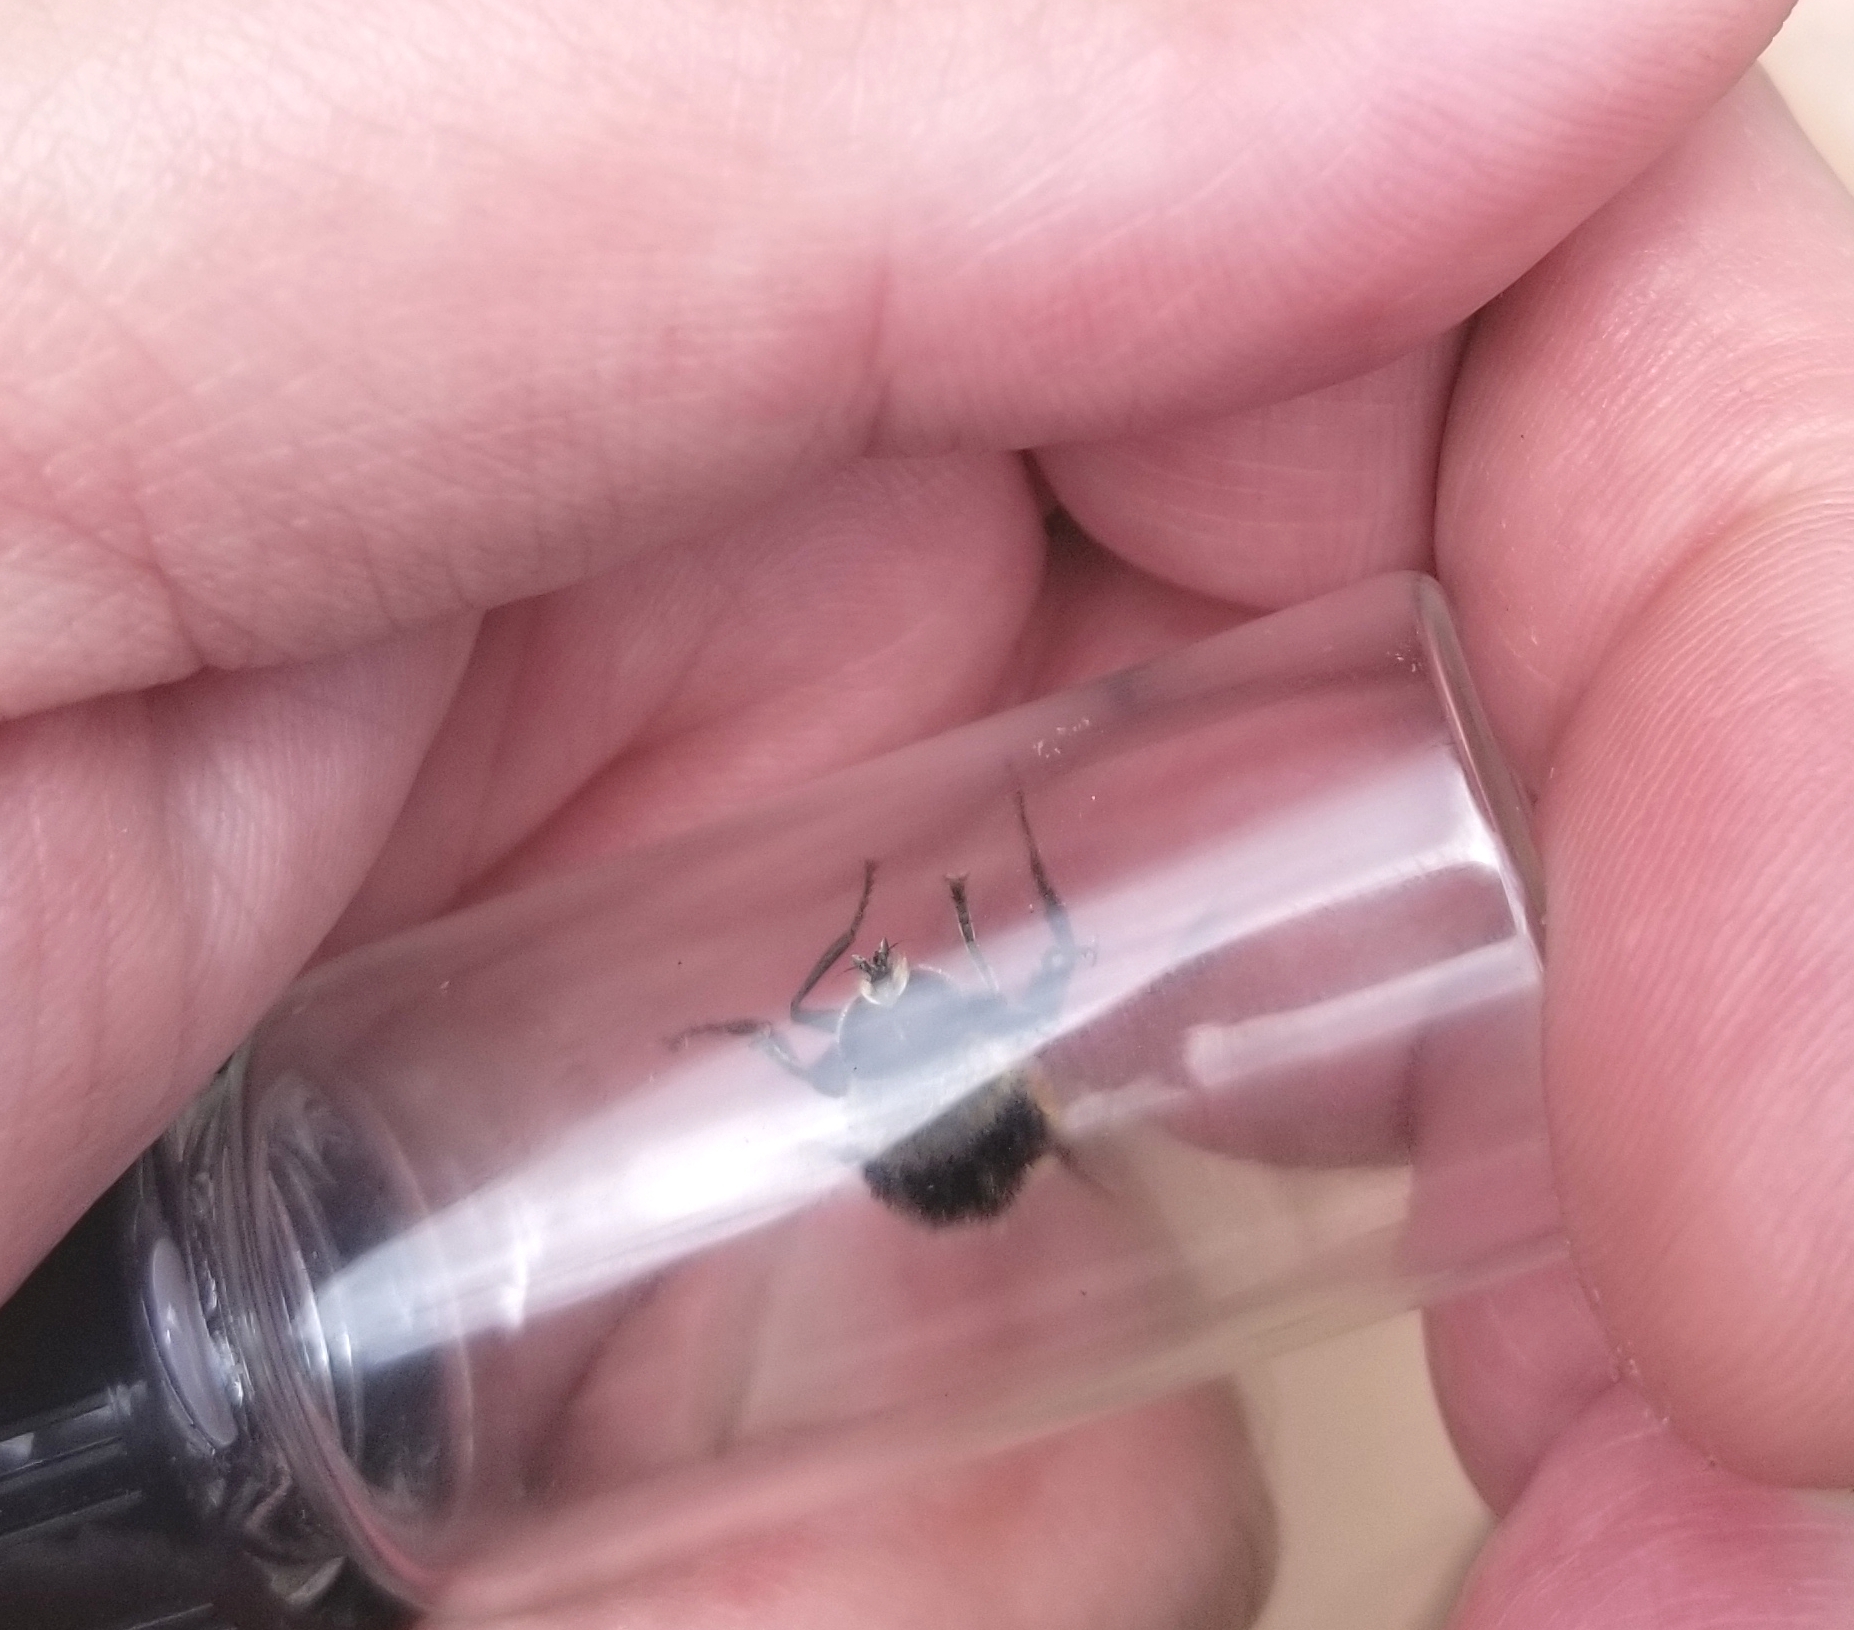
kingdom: Animalia
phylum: Arthropoda
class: Insecta
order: Diptera
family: Syrphidae
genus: Merodon
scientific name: Merodon equestris
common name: Greater bulb-fly
